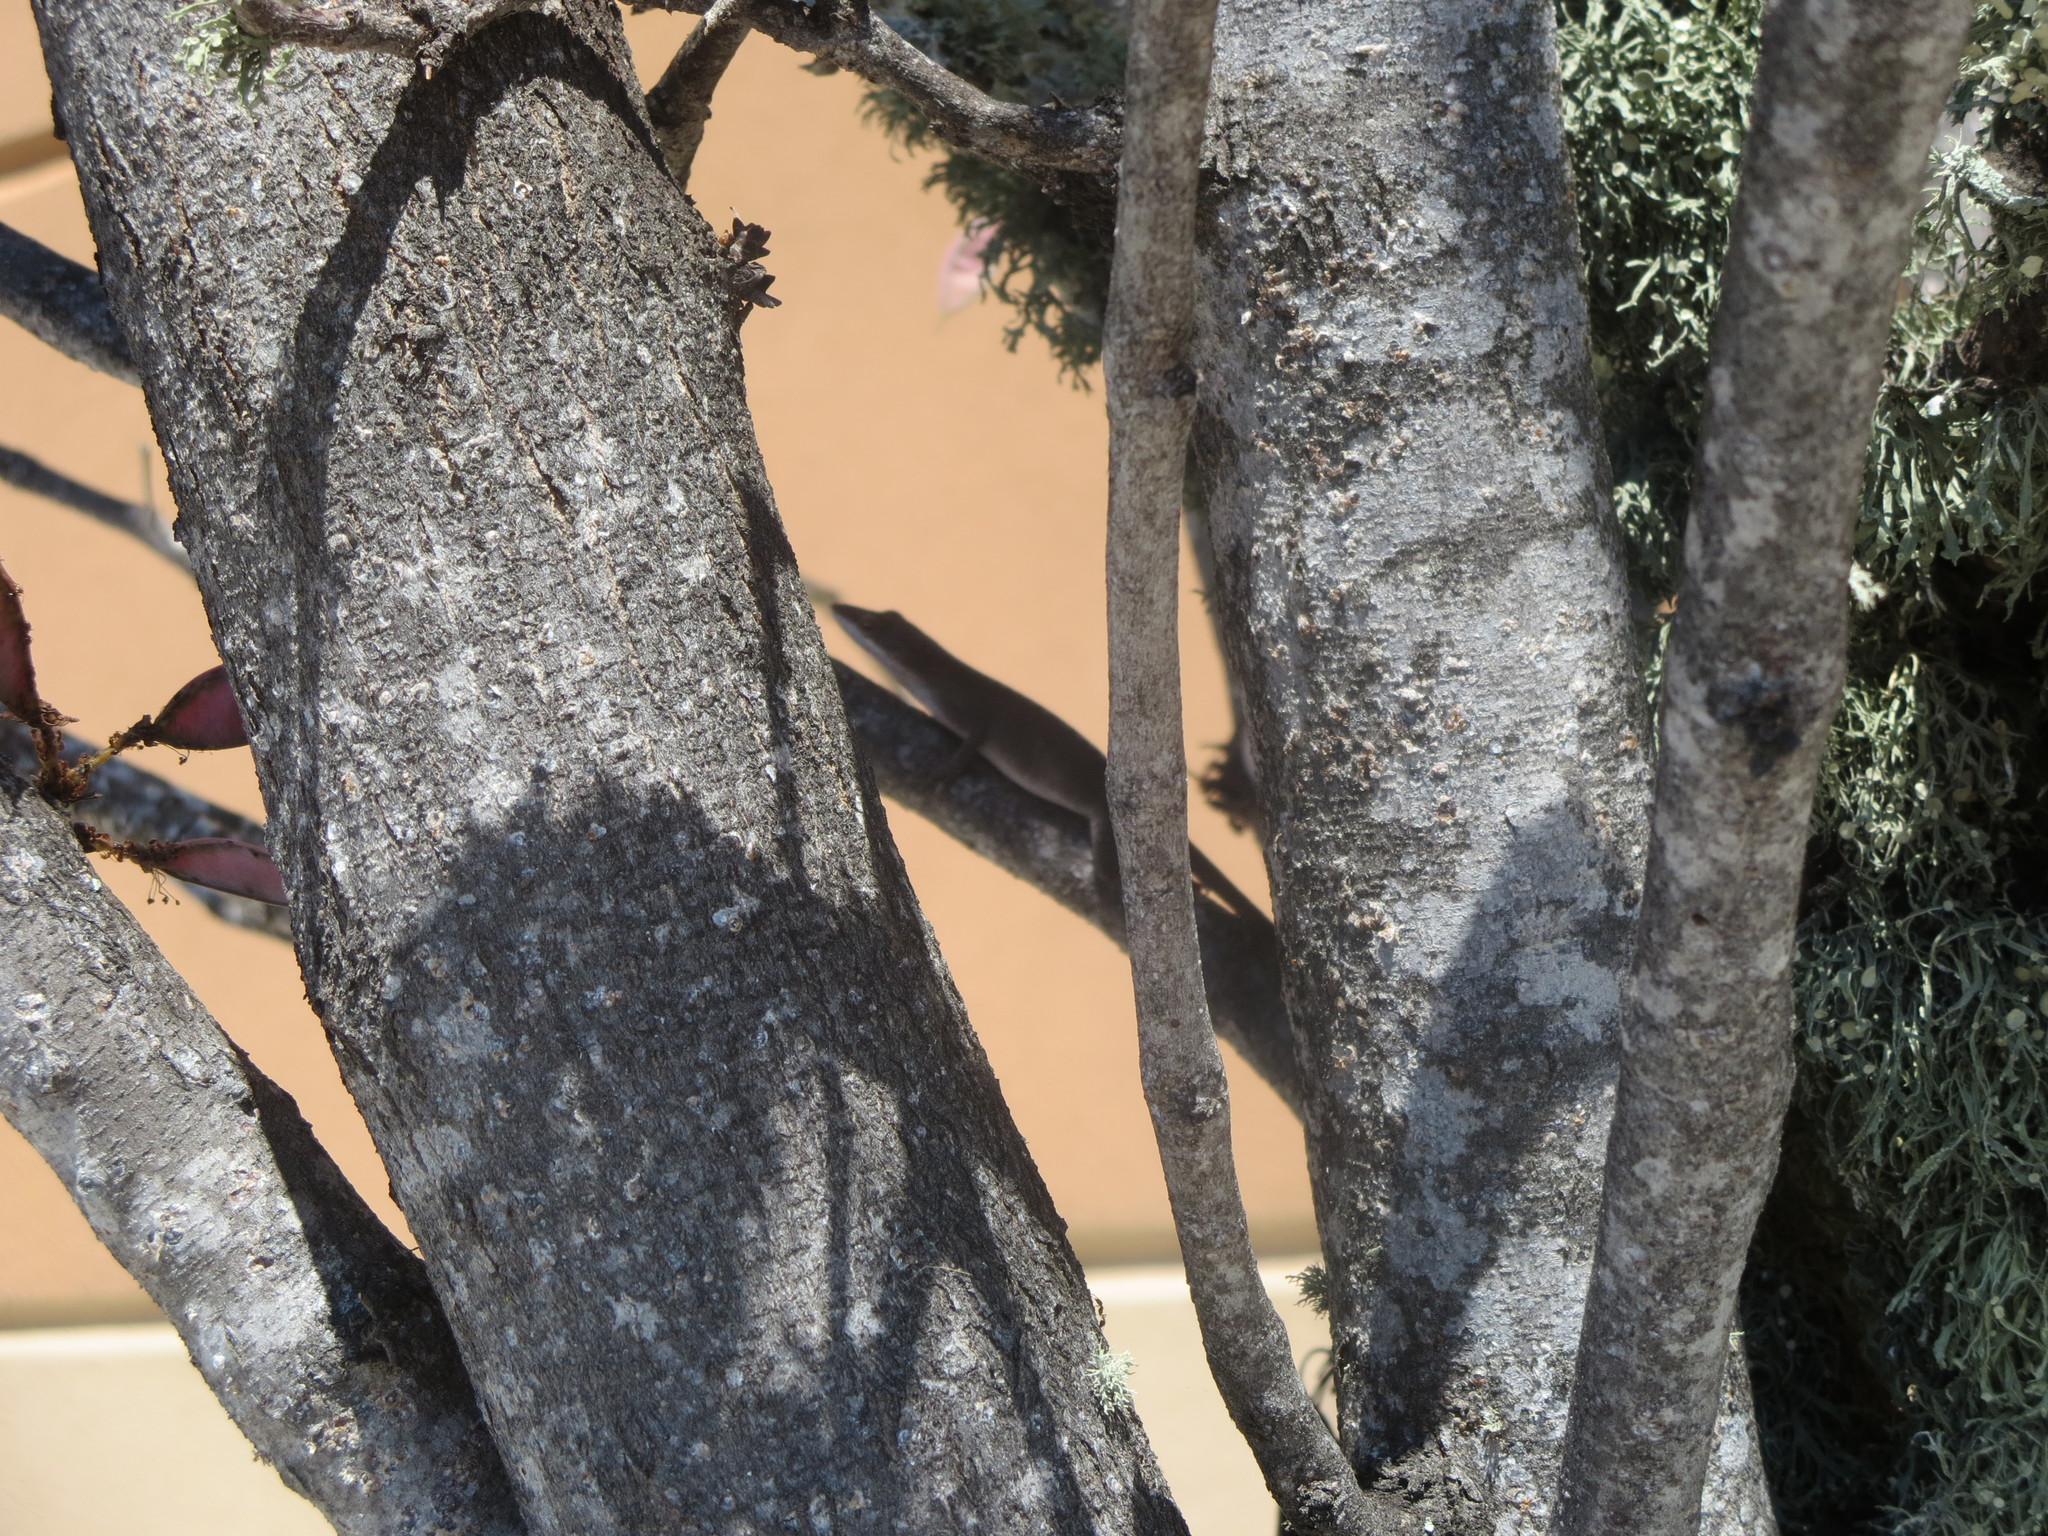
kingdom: Animalia
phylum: Chordata
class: Squamata
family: Dactyloidae
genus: Anolis
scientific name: Anolis carolinensis
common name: Green anole
